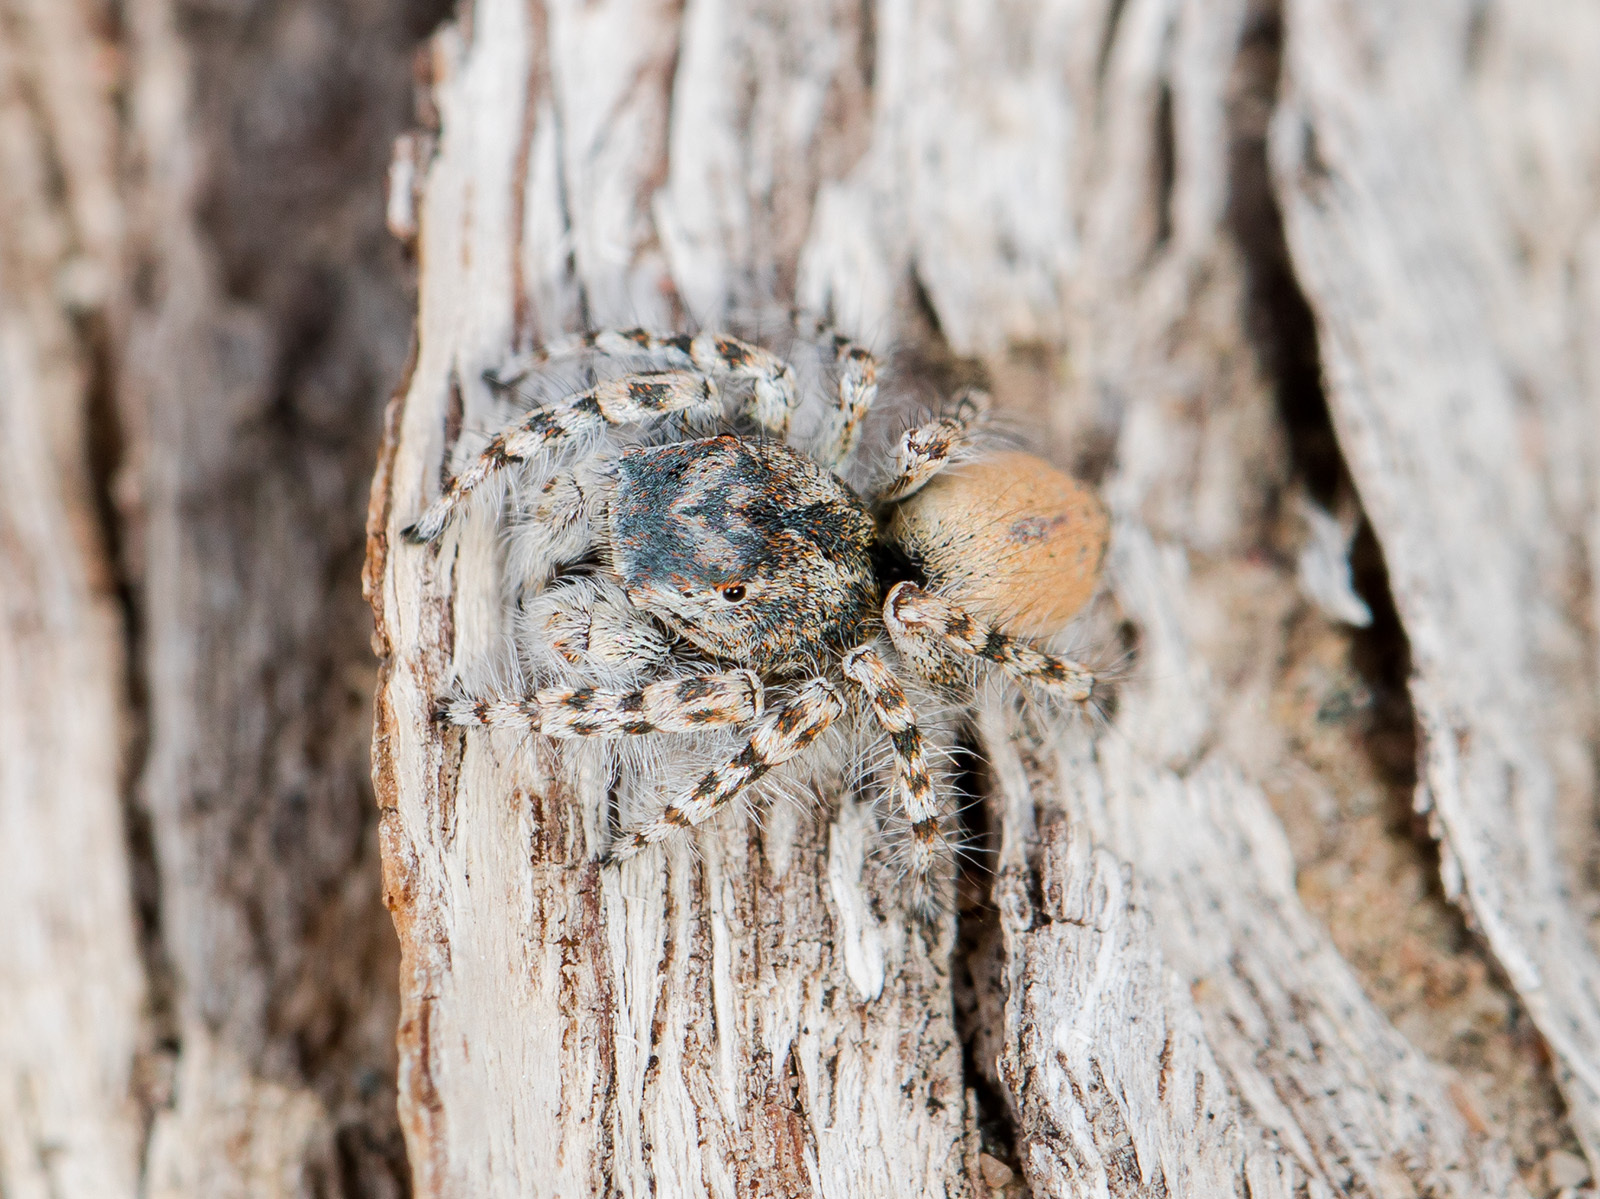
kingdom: Animalia
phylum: Arthropoda
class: Arachnida
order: Araneae
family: Salticidae
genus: Yllenus
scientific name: Yllenus uiguricus
